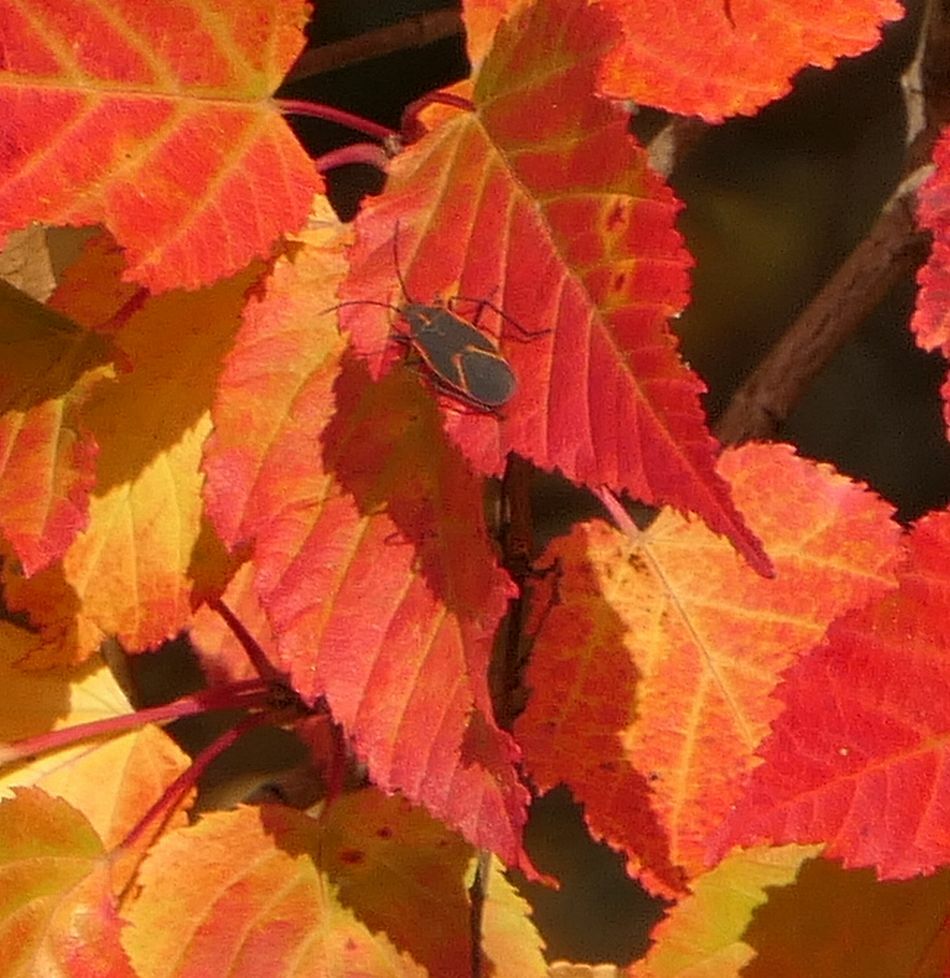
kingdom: Animalia
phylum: Arthropoda
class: Insecta
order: Hemiptera
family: Rhopalidae
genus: Boisea
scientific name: Boisea trivittata
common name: Boxelder bug
